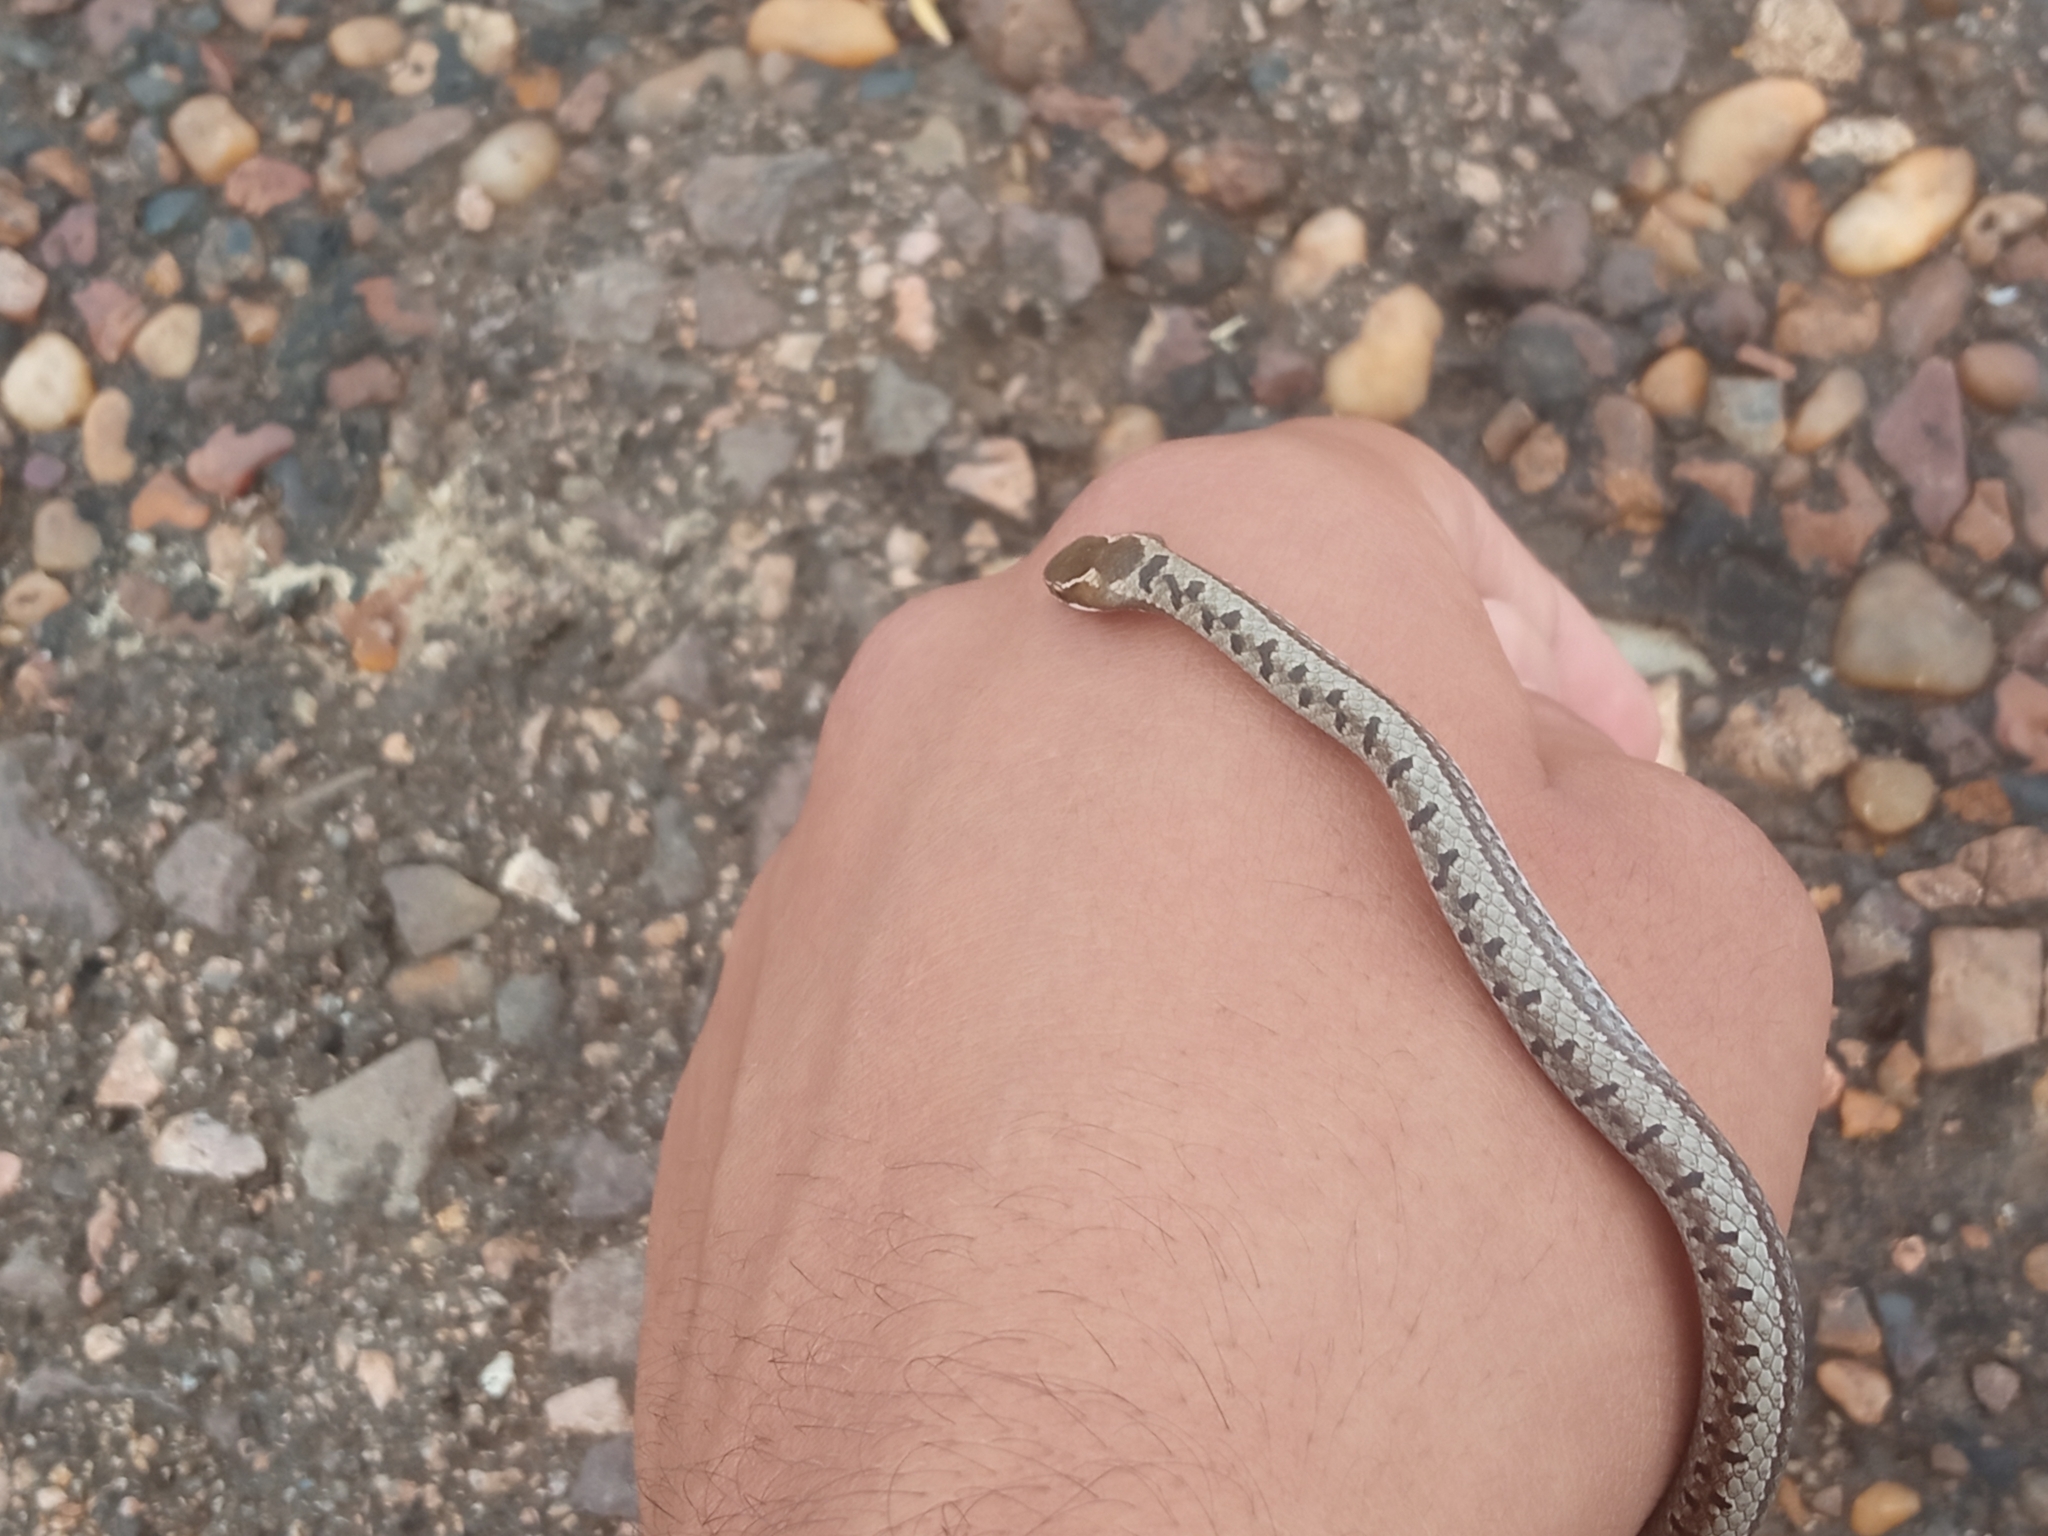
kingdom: Animalia
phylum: Chordata
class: Squamata
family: Colubridae
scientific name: Colubridae
